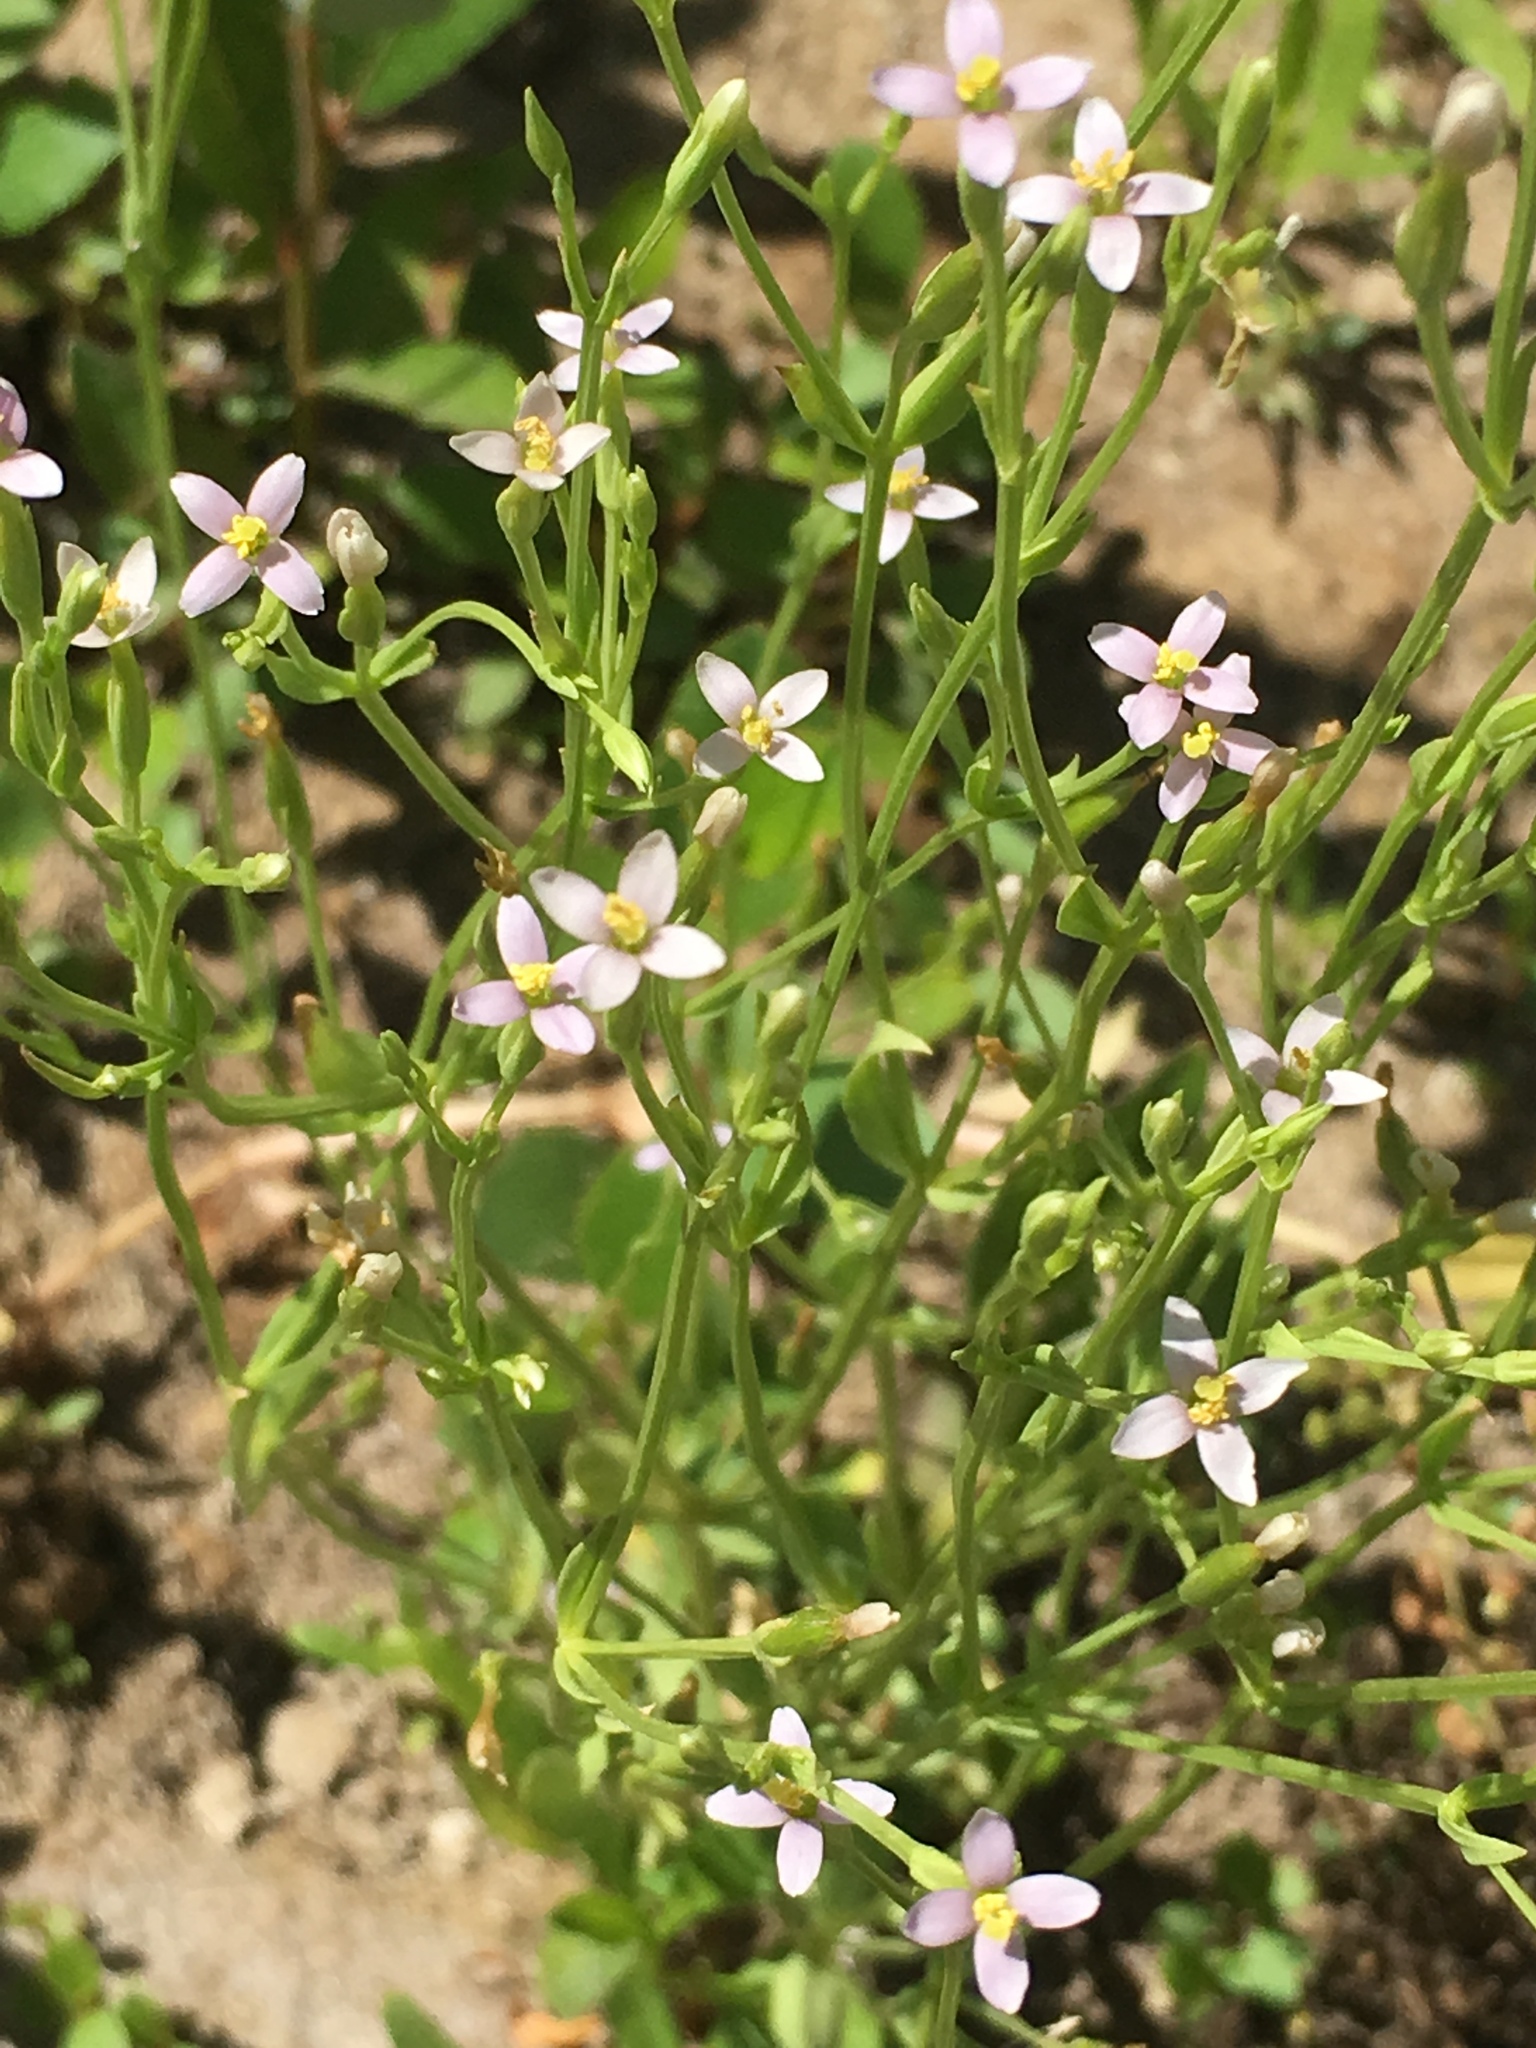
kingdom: Plantae
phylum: Tracheophyta
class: Magnoliopsida
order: Gentianales
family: Gentianaceae
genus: Zeltnera
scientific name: Zeltnera exaltata
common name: Great basin centaury
